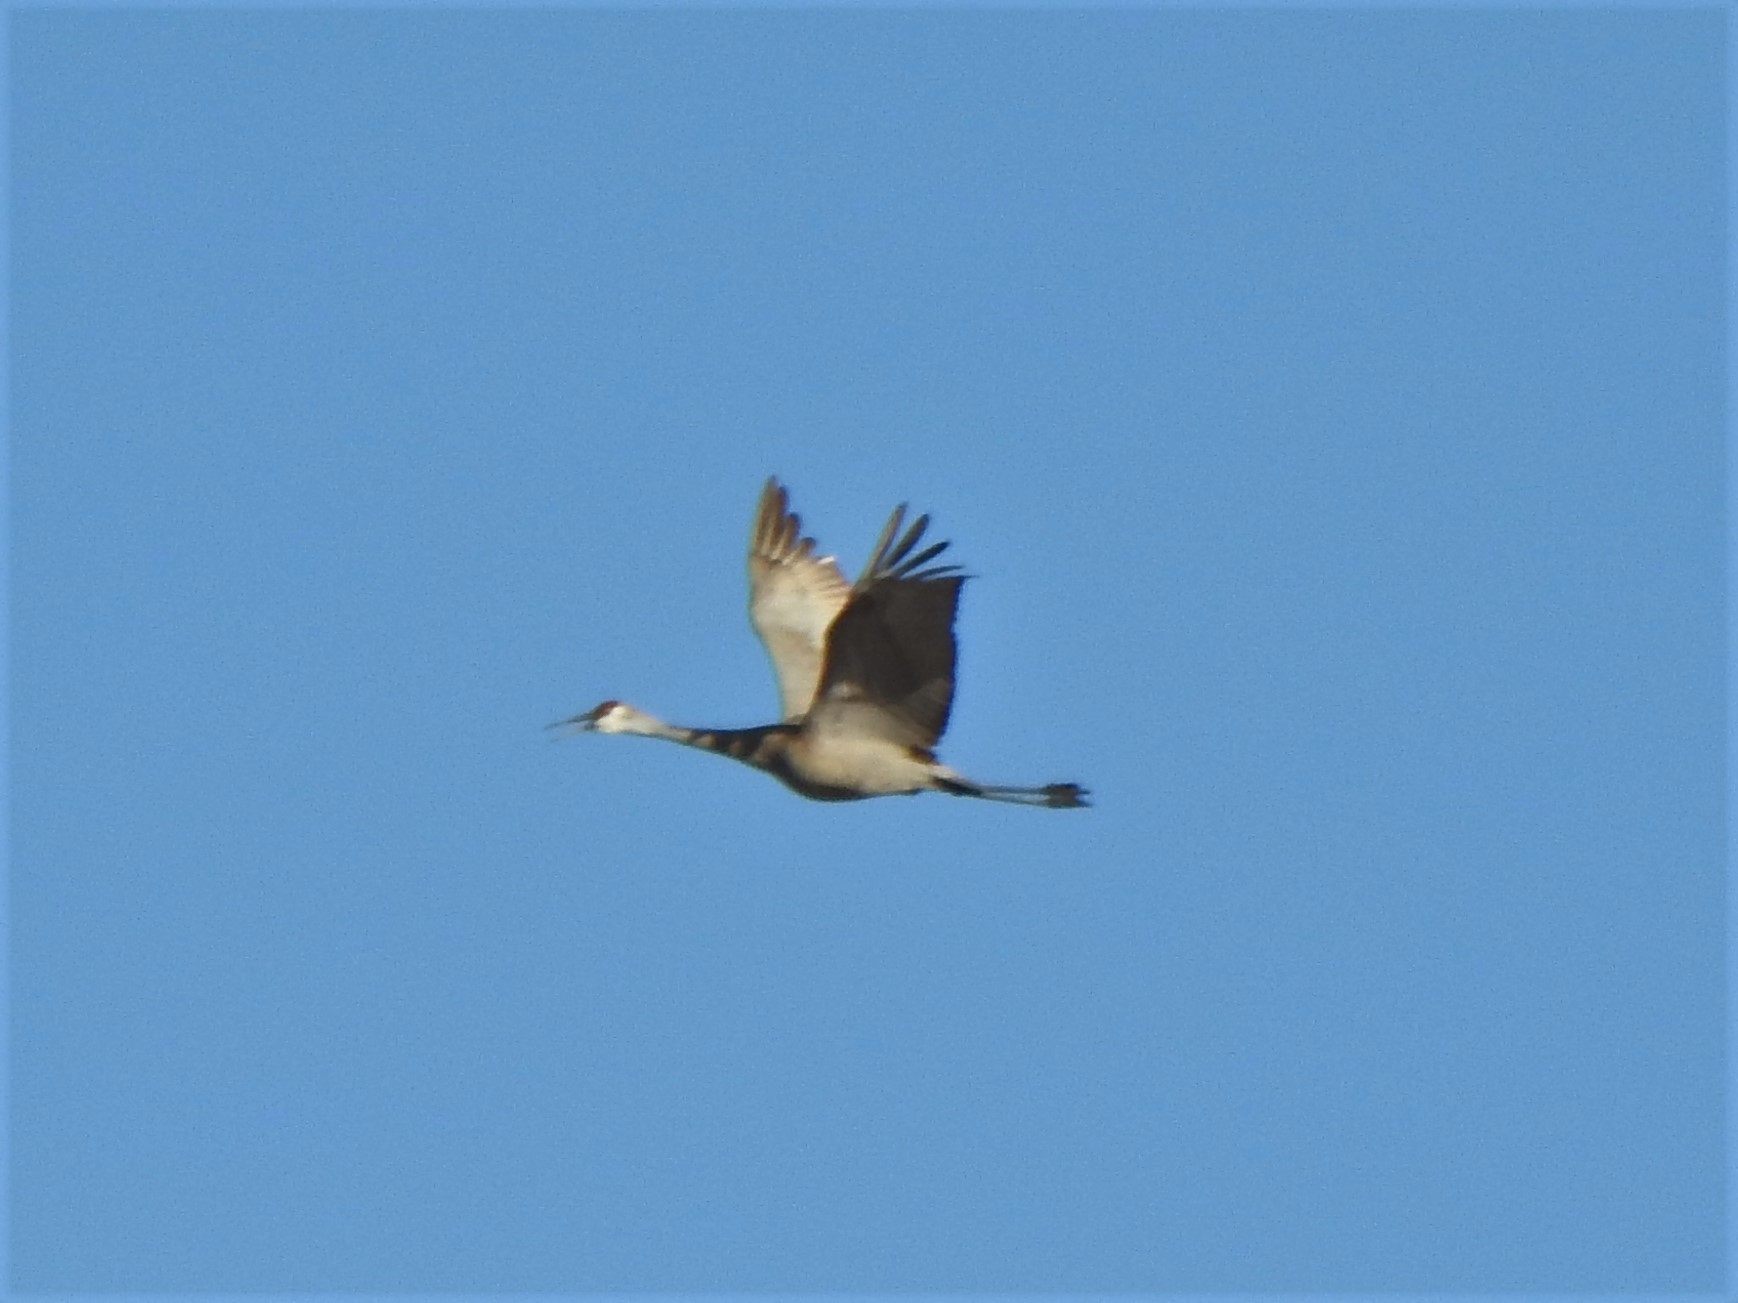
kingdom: Animalia
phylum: Chordata
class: Aves
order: Gruiformes
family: Gruidae
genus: Grus
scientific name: Grus canadensis
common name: Sandhill crane
